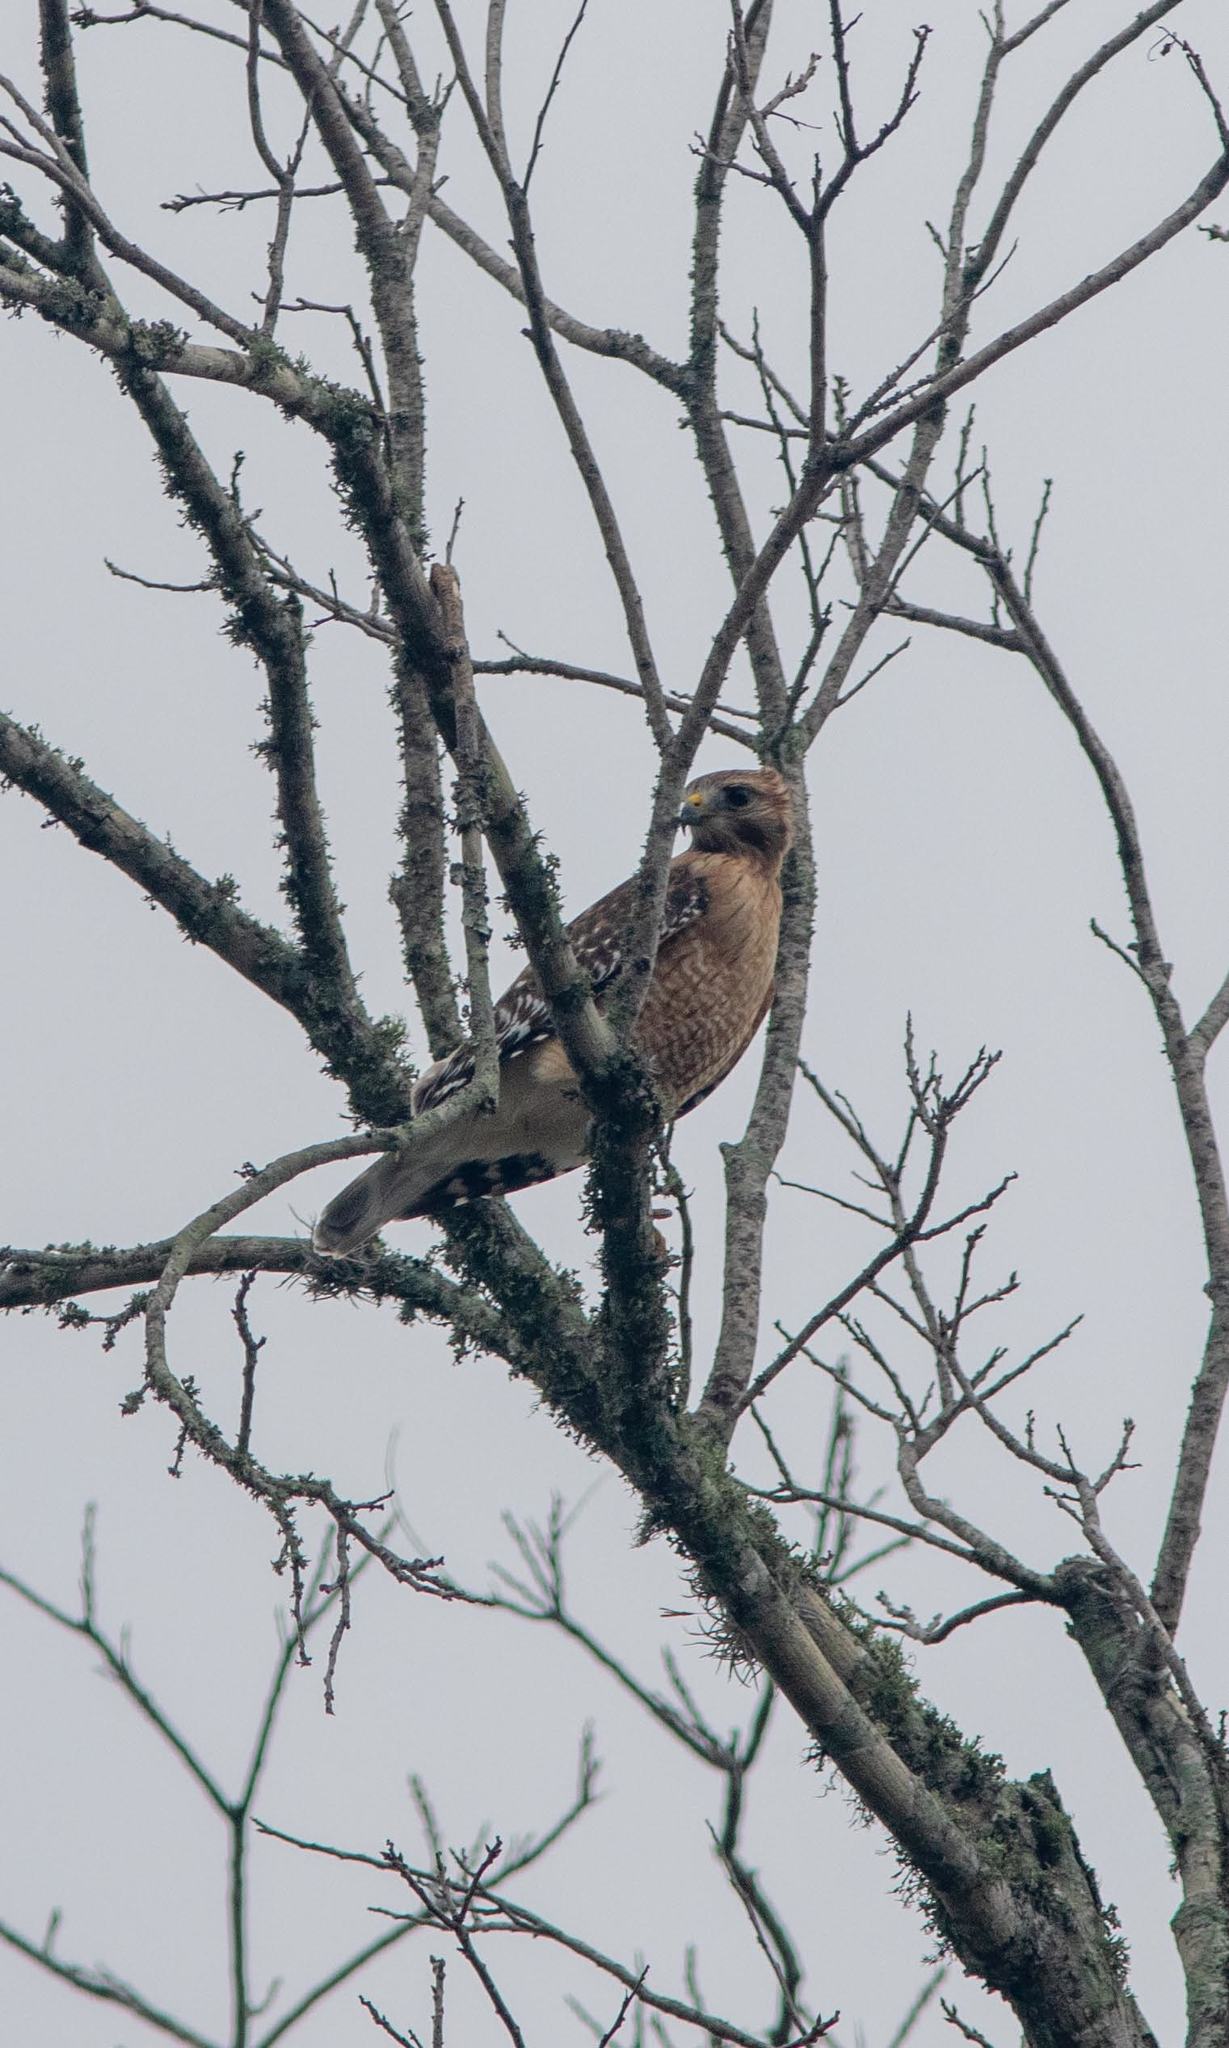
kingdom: Animalia
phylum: Chordata
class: Aves
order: Accipitriformes
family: Accipitridae
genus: Buteo
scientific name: Buteo lineatus
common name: Red-shouldered hawk
